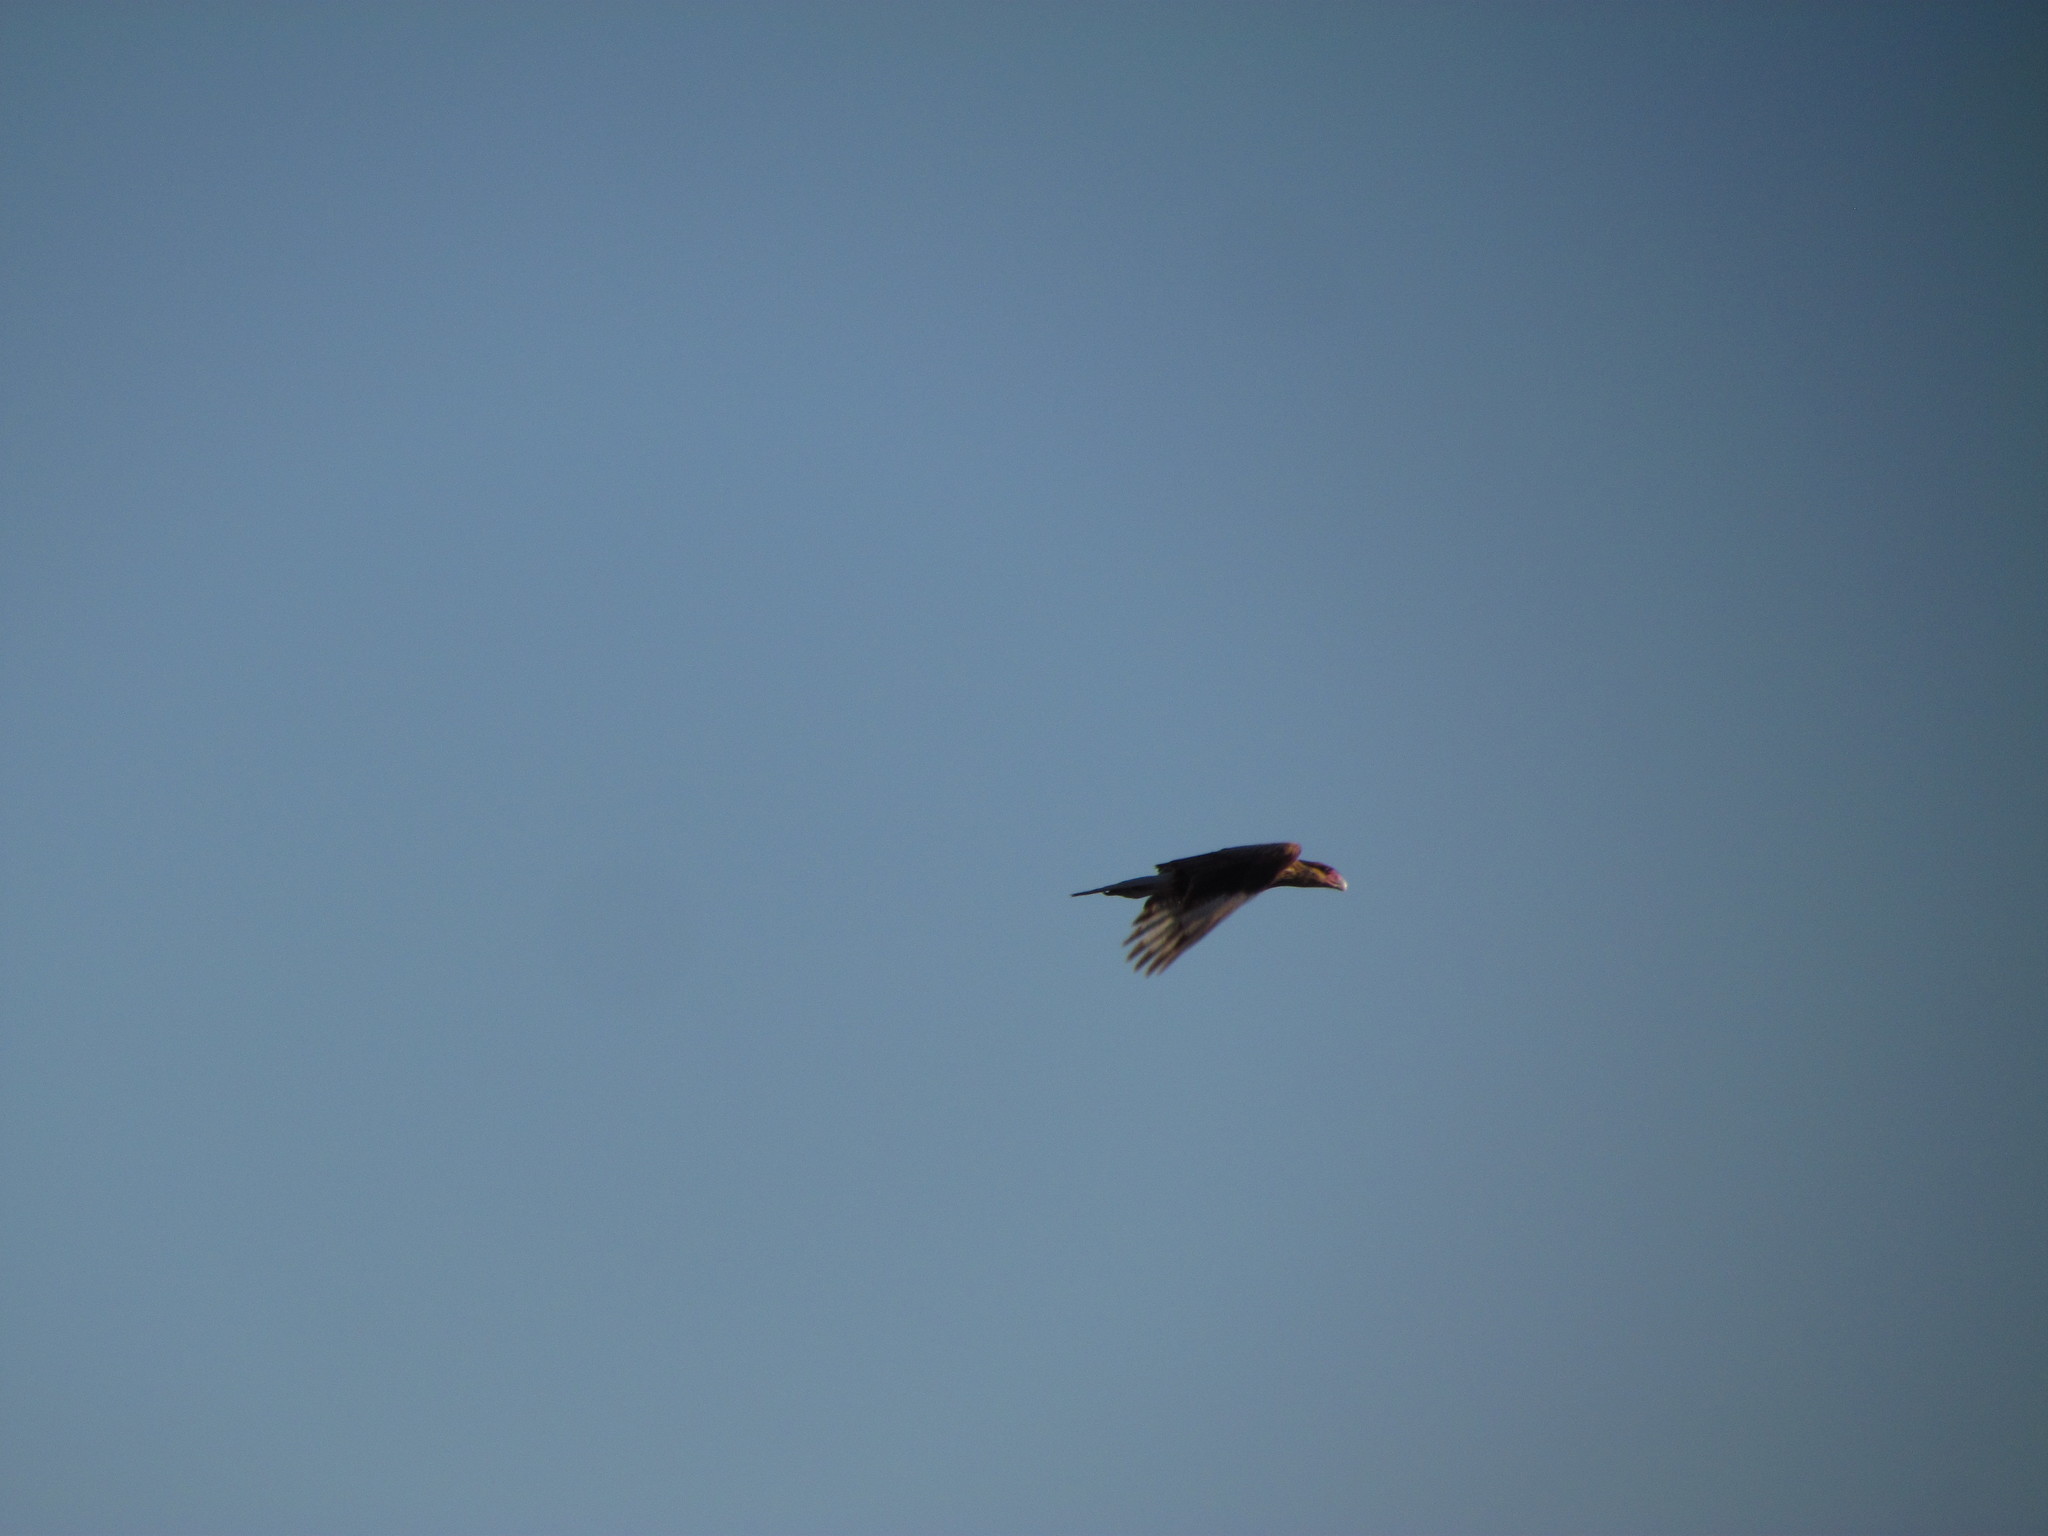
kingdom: Animalia
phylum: Chordata
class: Aves
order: Falconiformes
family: Falconidae
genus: Caracara
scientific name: Caracara plancus
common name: Southern caracara
